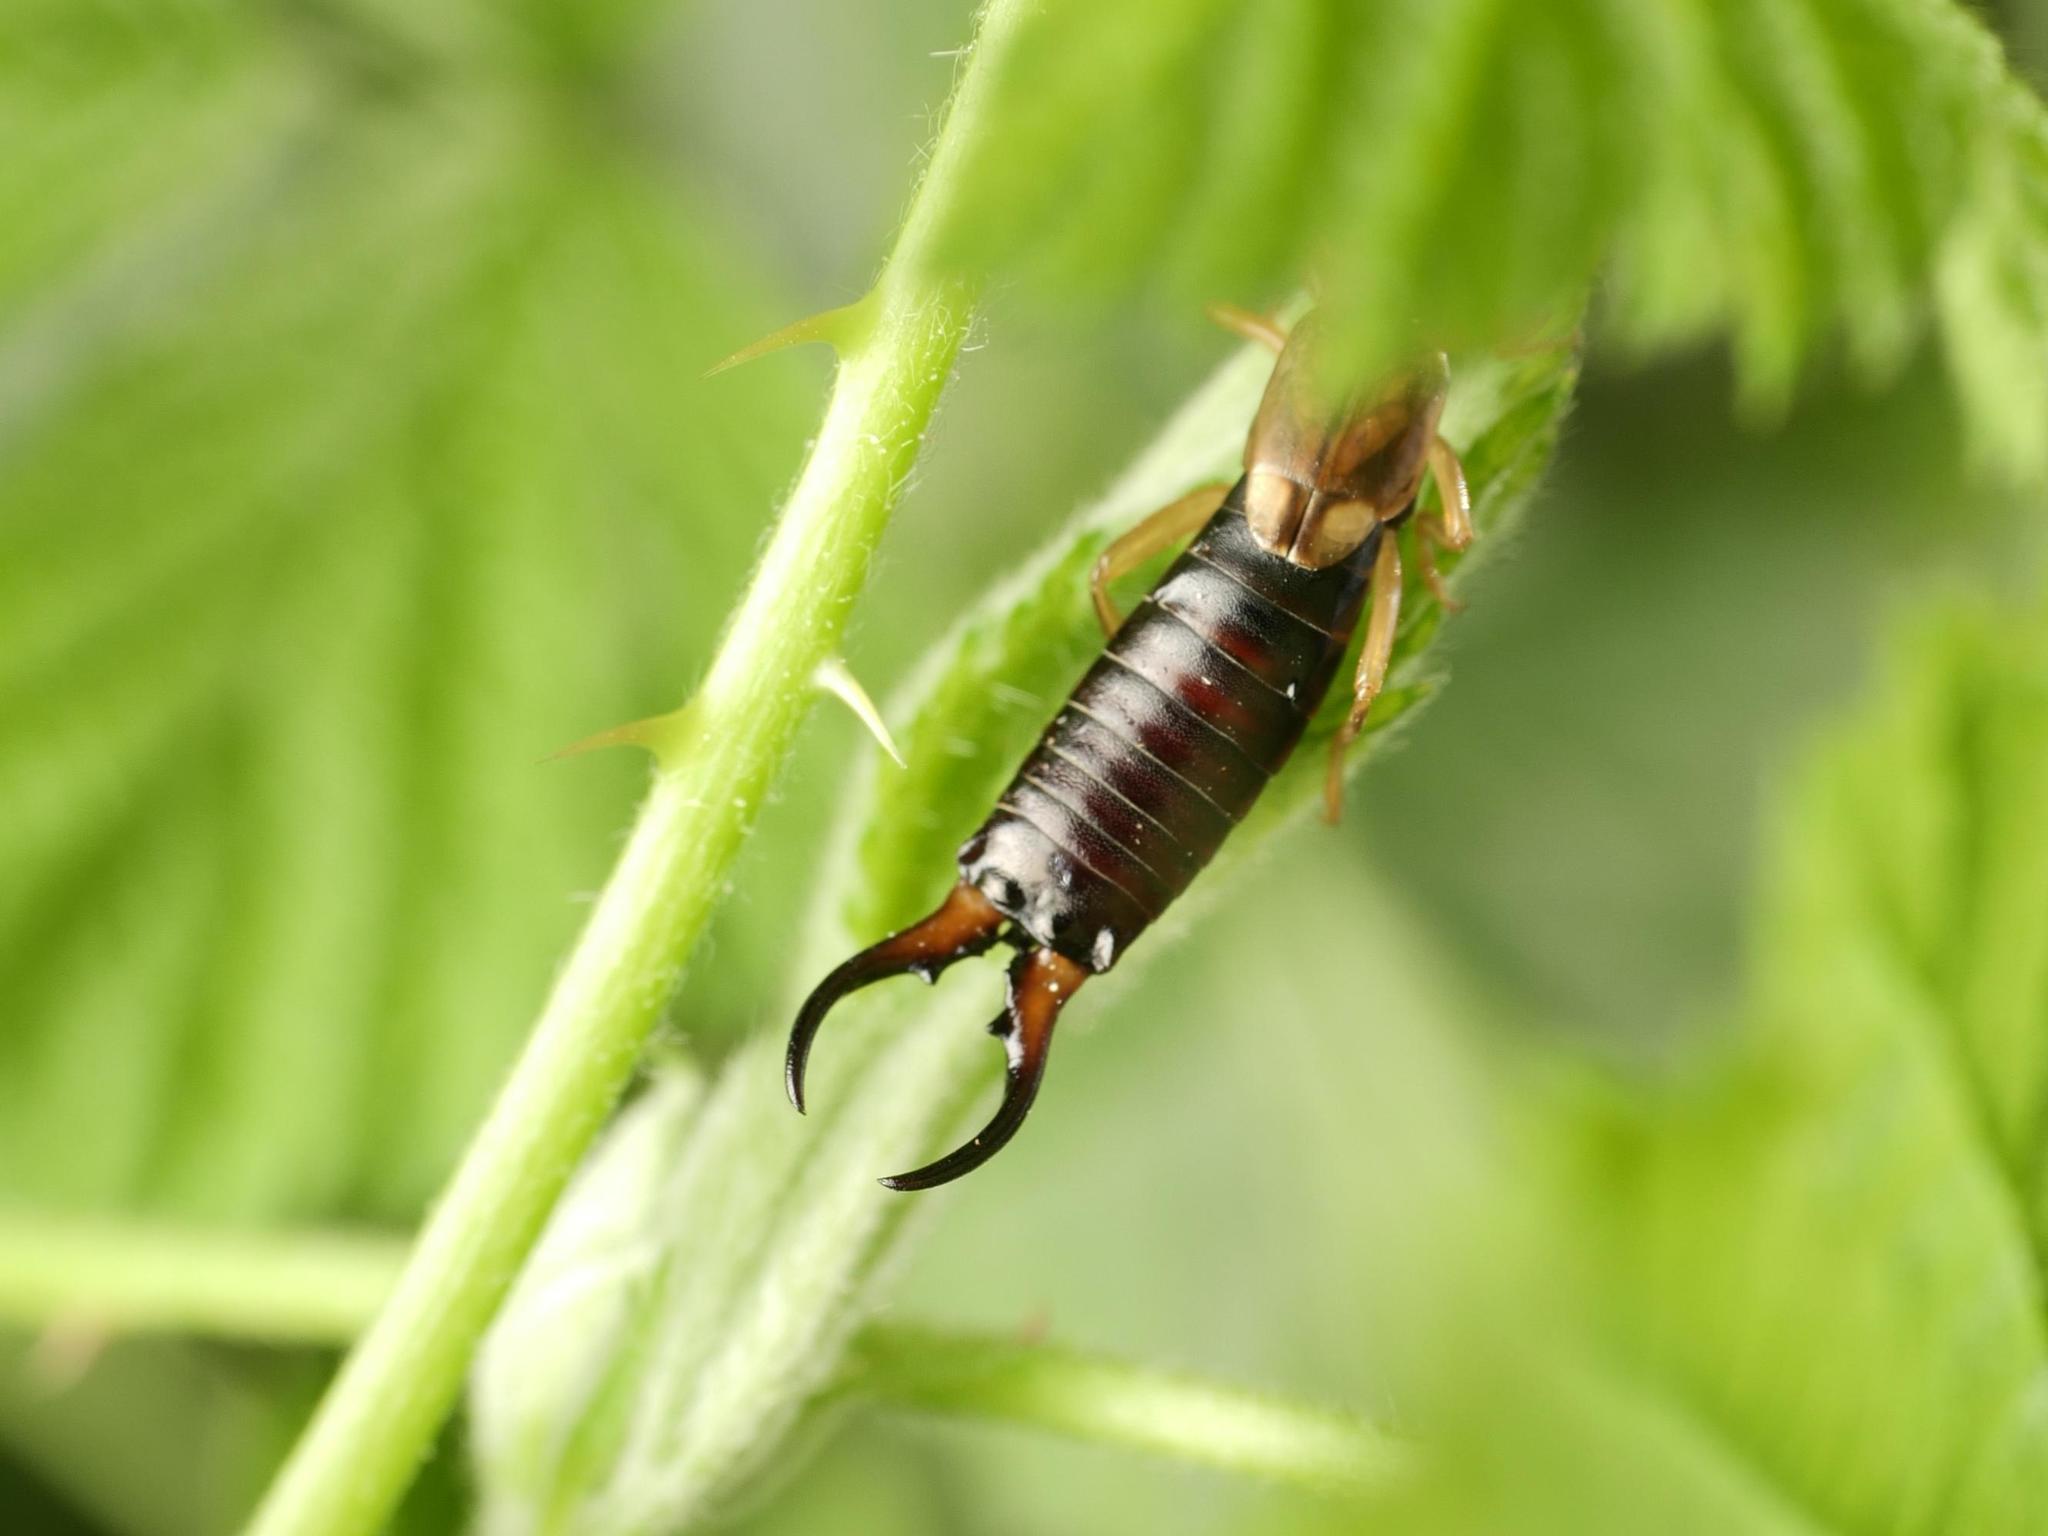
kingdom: Animalia
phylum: Arthropoda
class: Insecta
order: Dermaptera
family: Forficulidae
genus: Forficula
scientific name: Forficula
